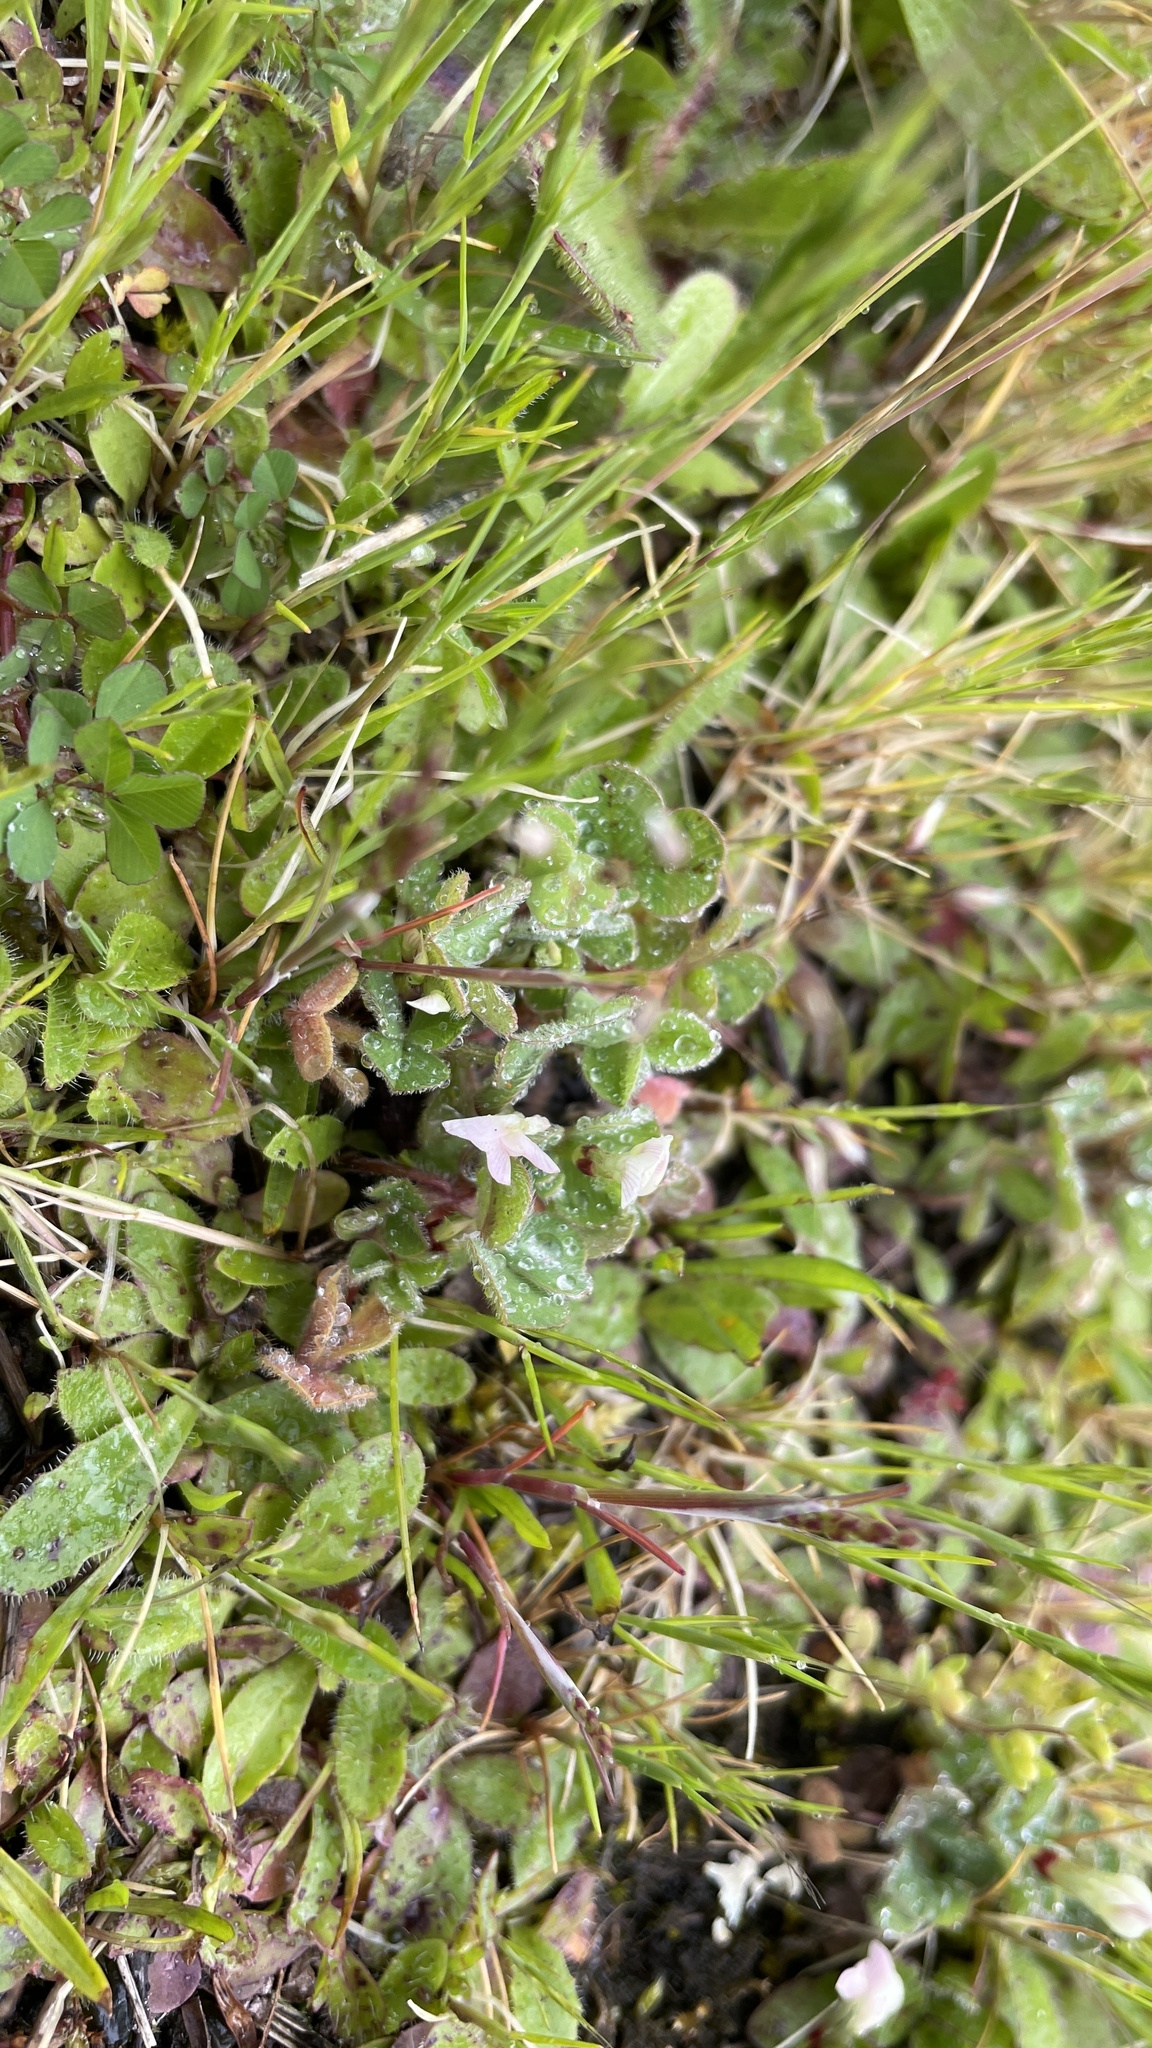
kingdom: Plantae
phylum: Tracheophyta
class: Magnoliopsida
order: Fabales
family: Fabaceae
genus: Trifolium
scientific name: Trifolium subterraneum
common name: Subterranean clover
